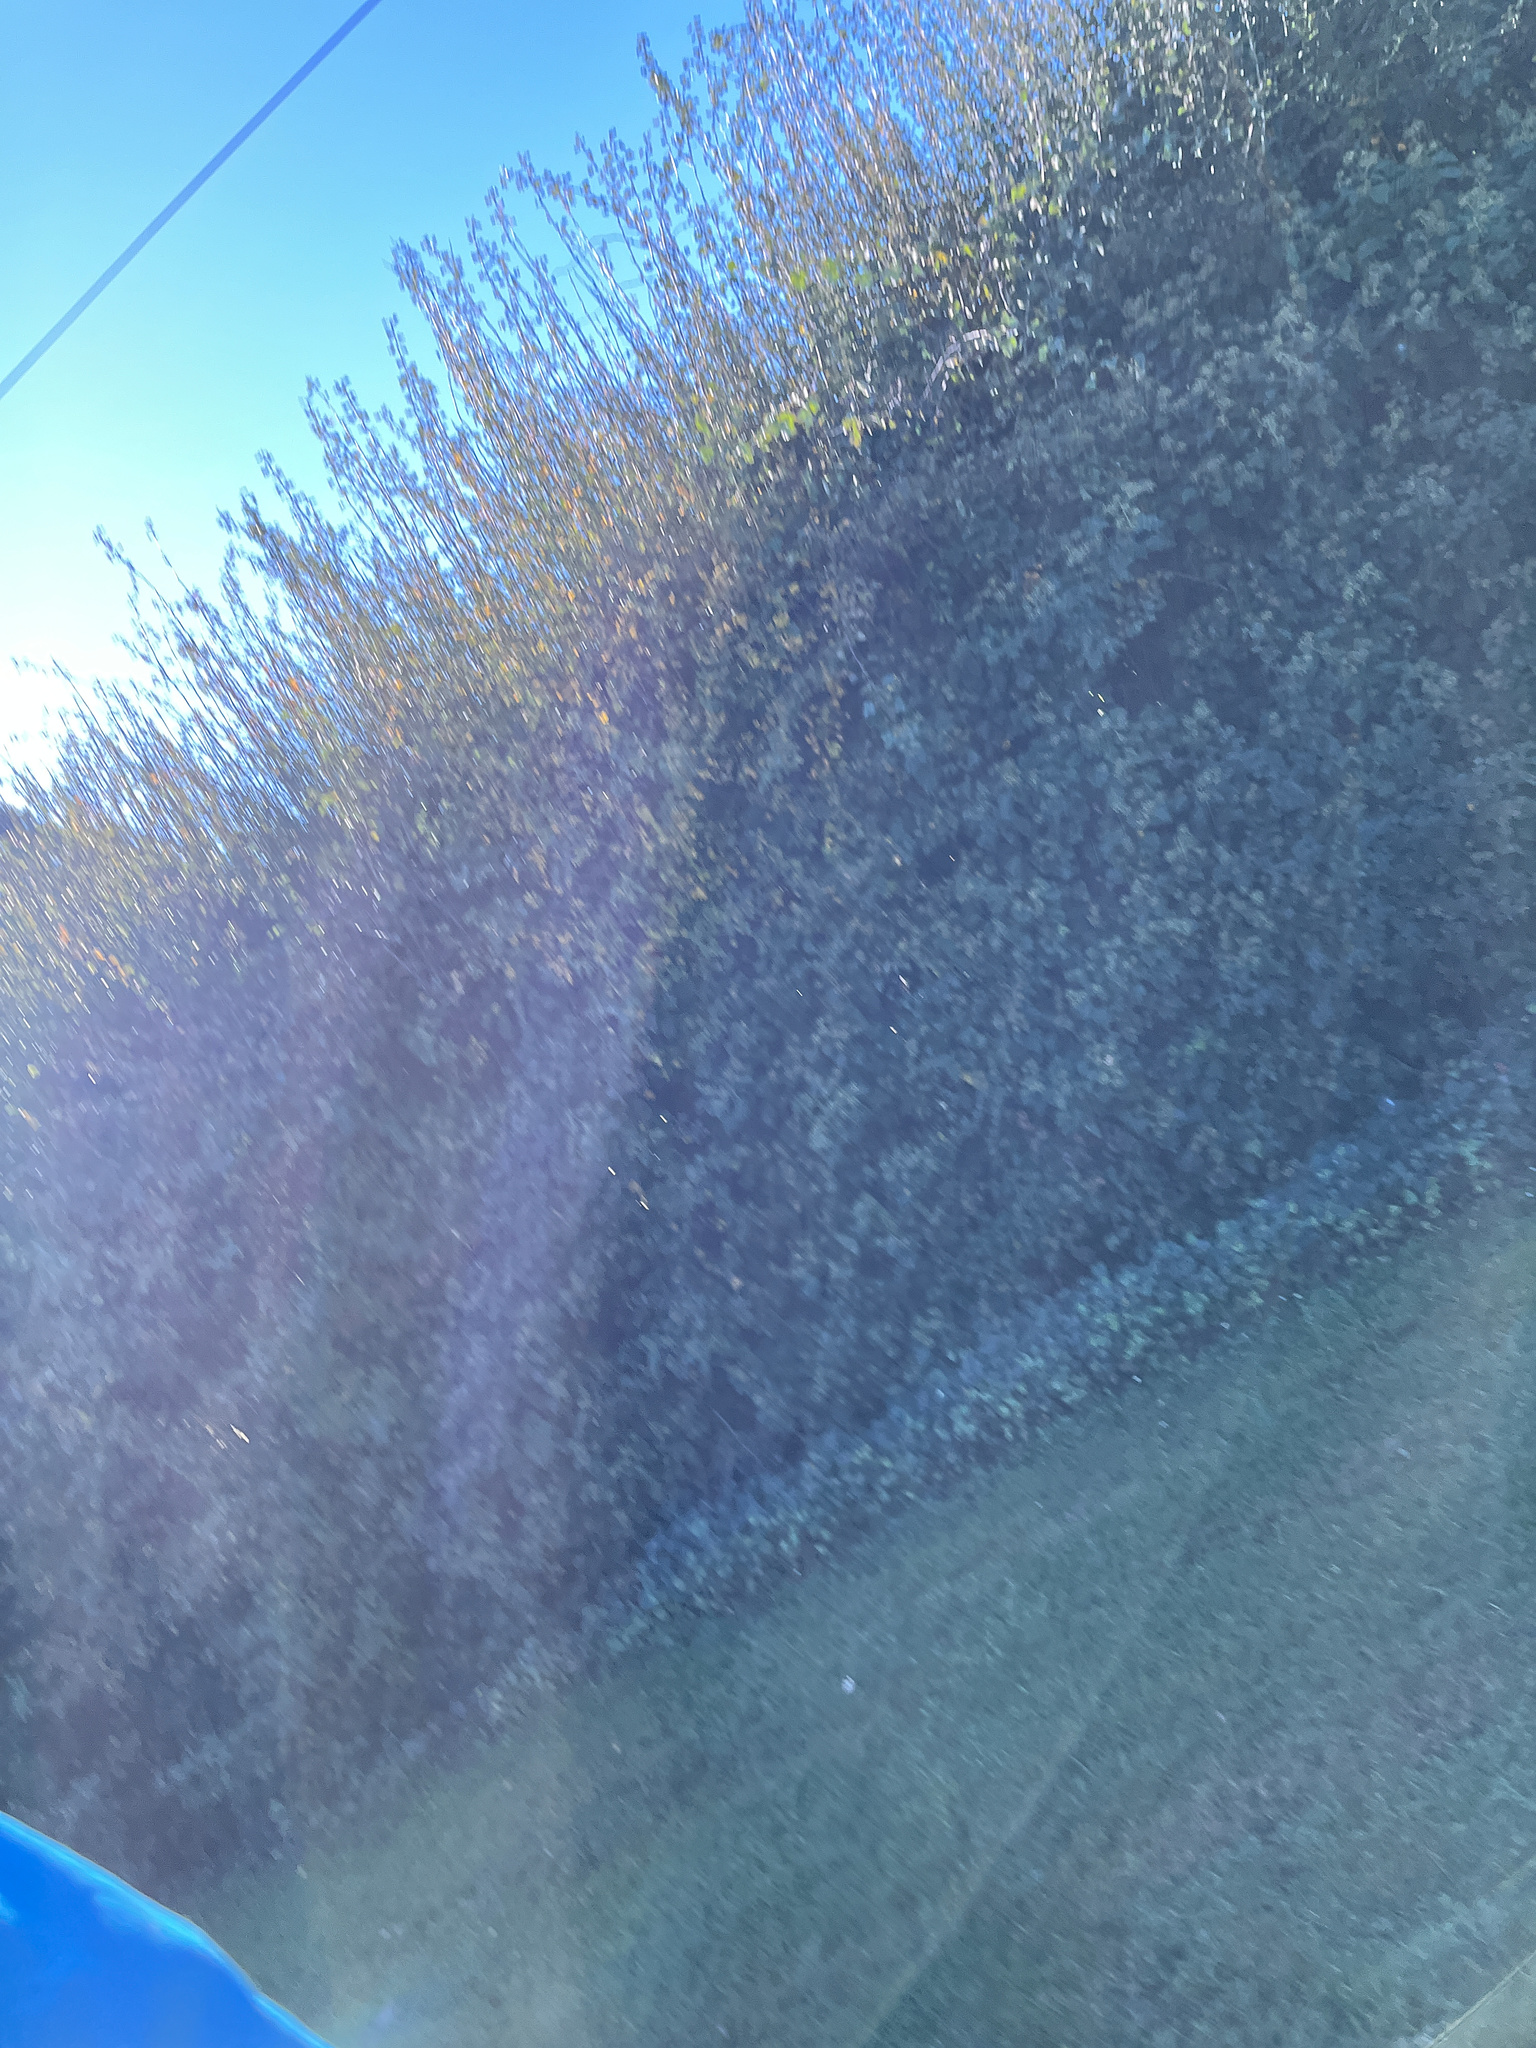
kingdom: Plantae
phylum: Tracheophyta
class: Magnoliopsida
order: Rosales
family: Rosaceae
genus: Crataegus
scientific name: Crataegus monogyna
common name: Hawthorn
